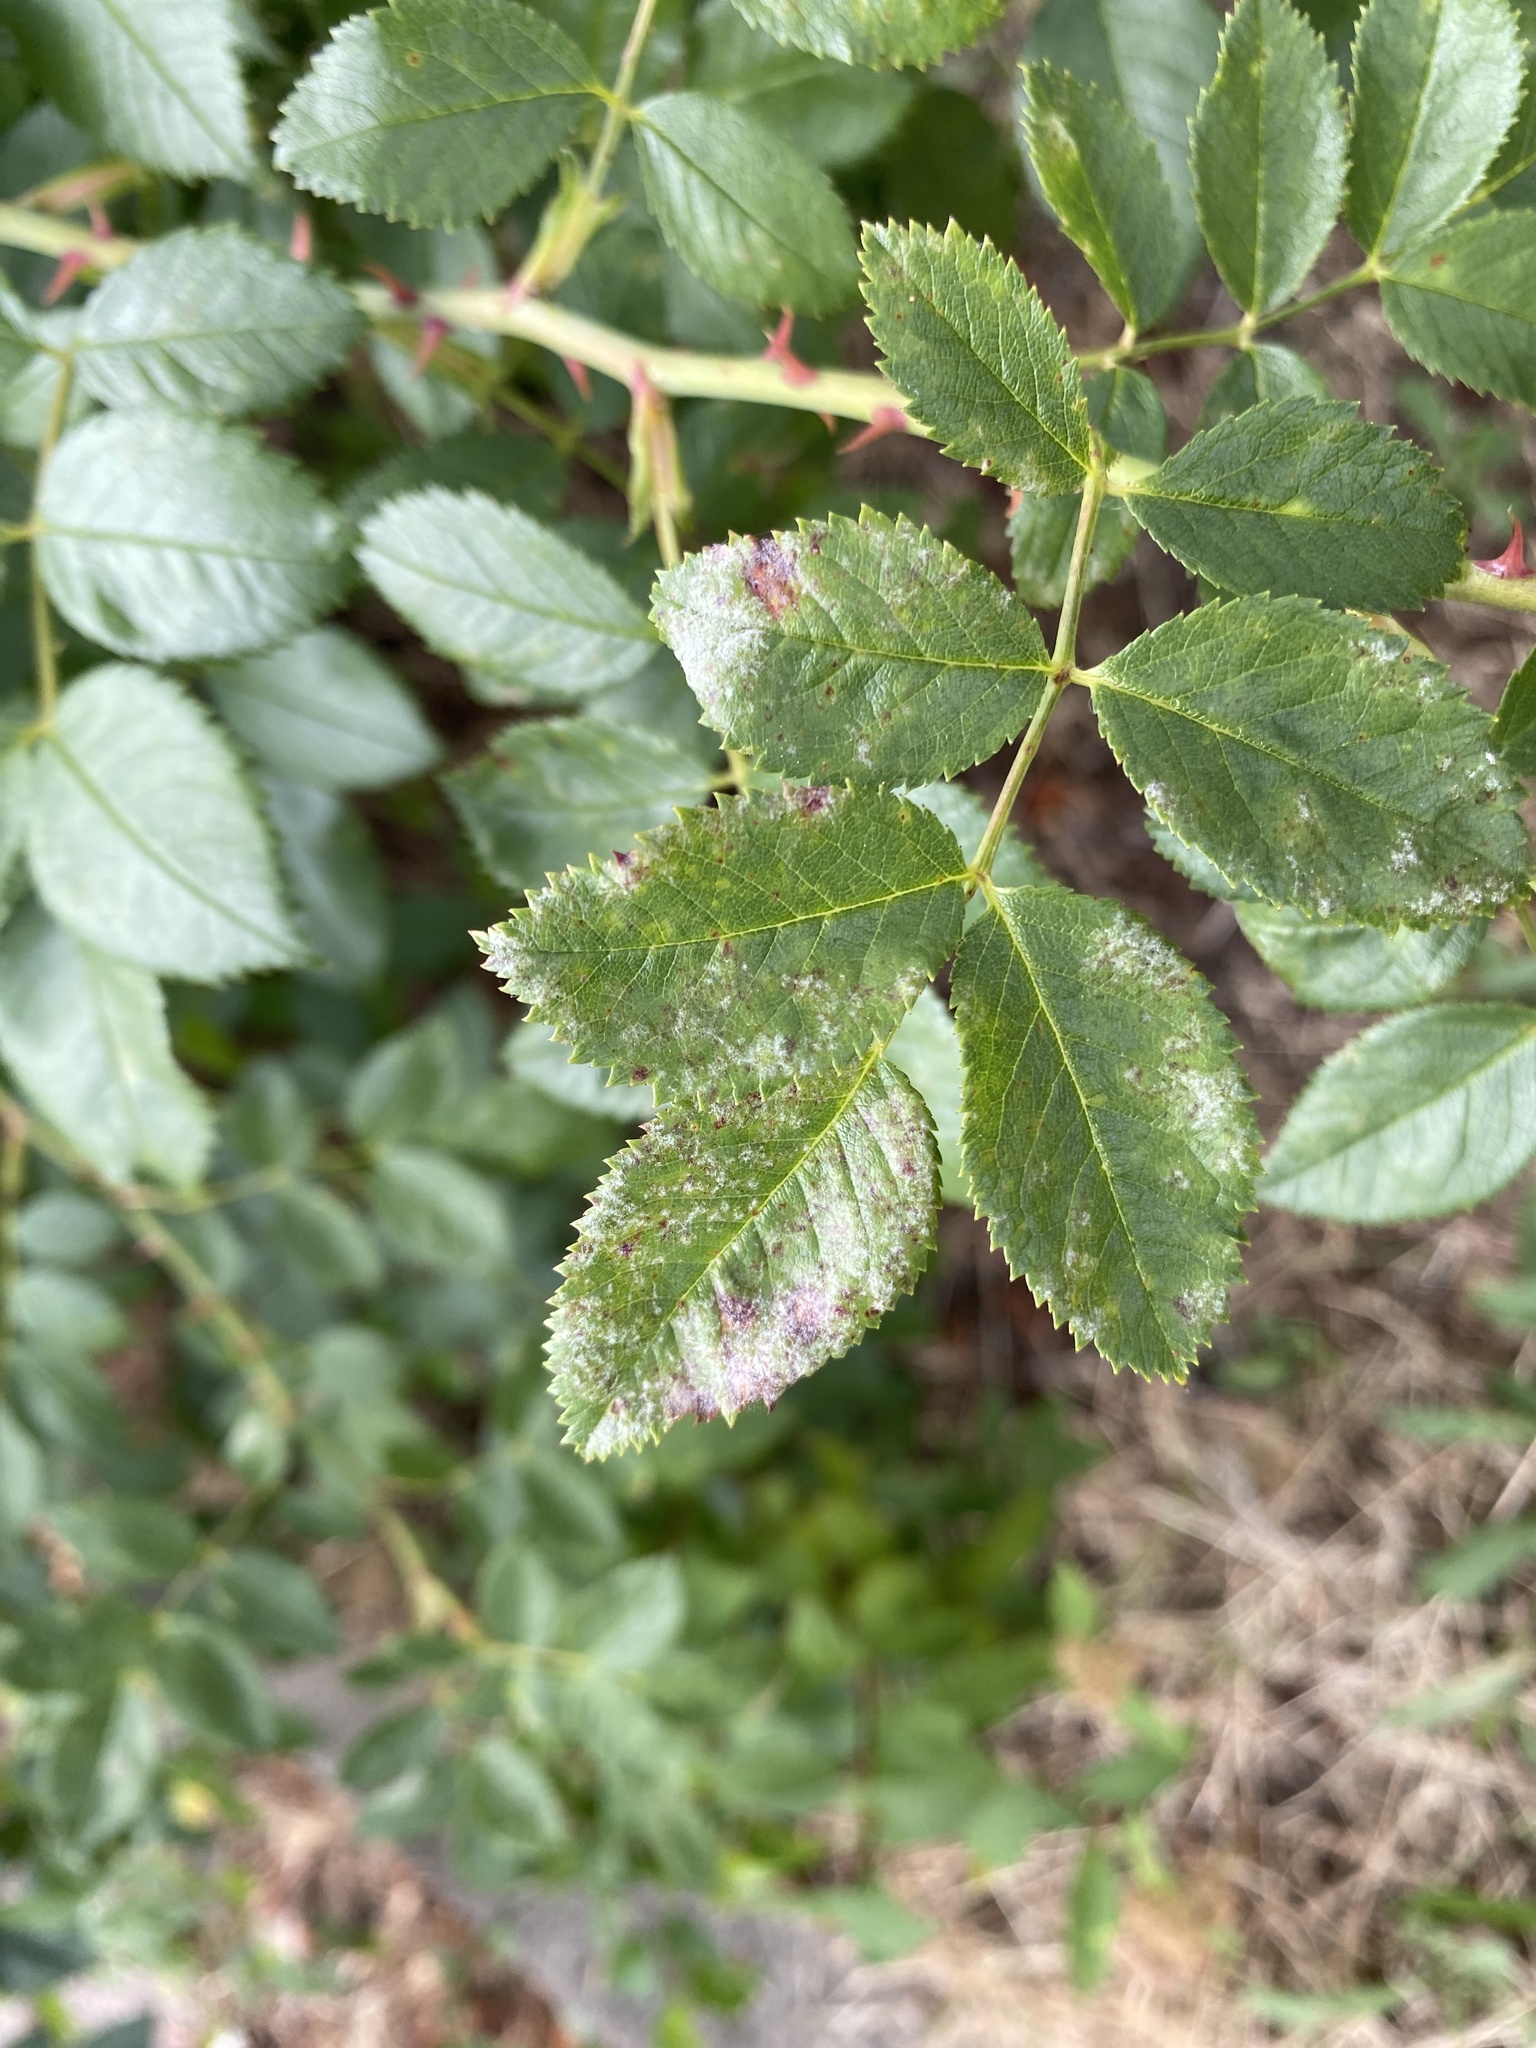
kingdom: Fungi
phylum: Ascomycota
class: Leotiomycetes
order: Helotiales
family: Erysiphaceae
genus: Podosphaera
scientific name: Podosphaera pannosa
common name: Rose mildew
